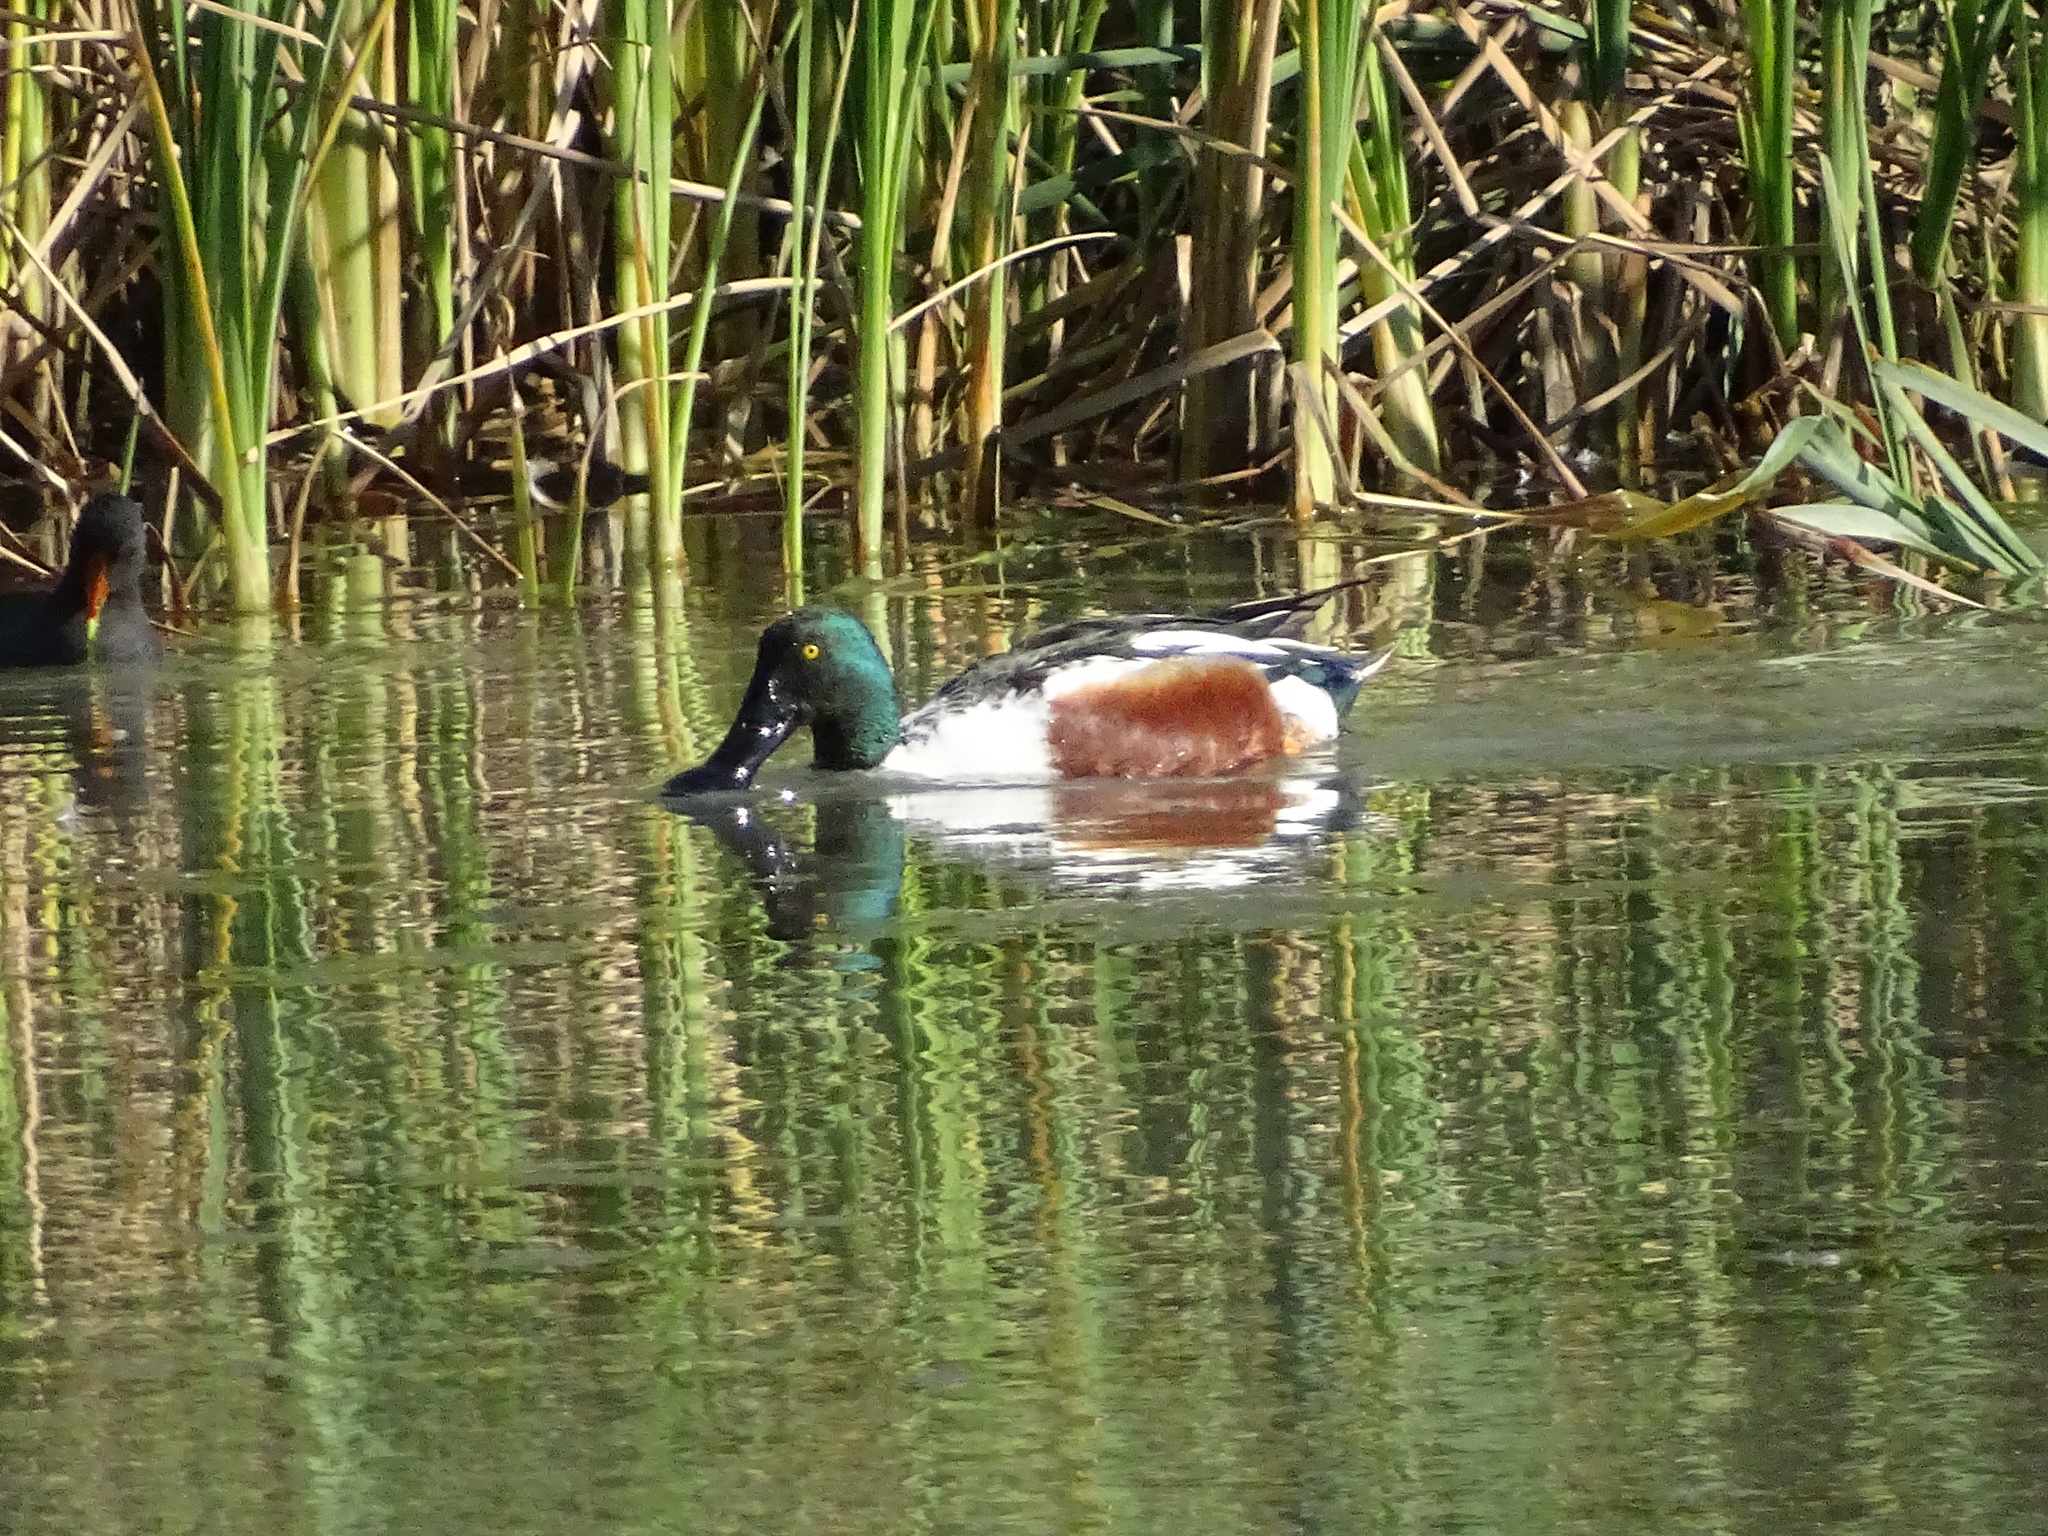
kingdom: Animalia
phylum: Chordata
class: Aves
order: Anseriformes
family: Anatidae
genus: Spatula
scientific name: Spatula clypeata
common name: Northern shoveler
